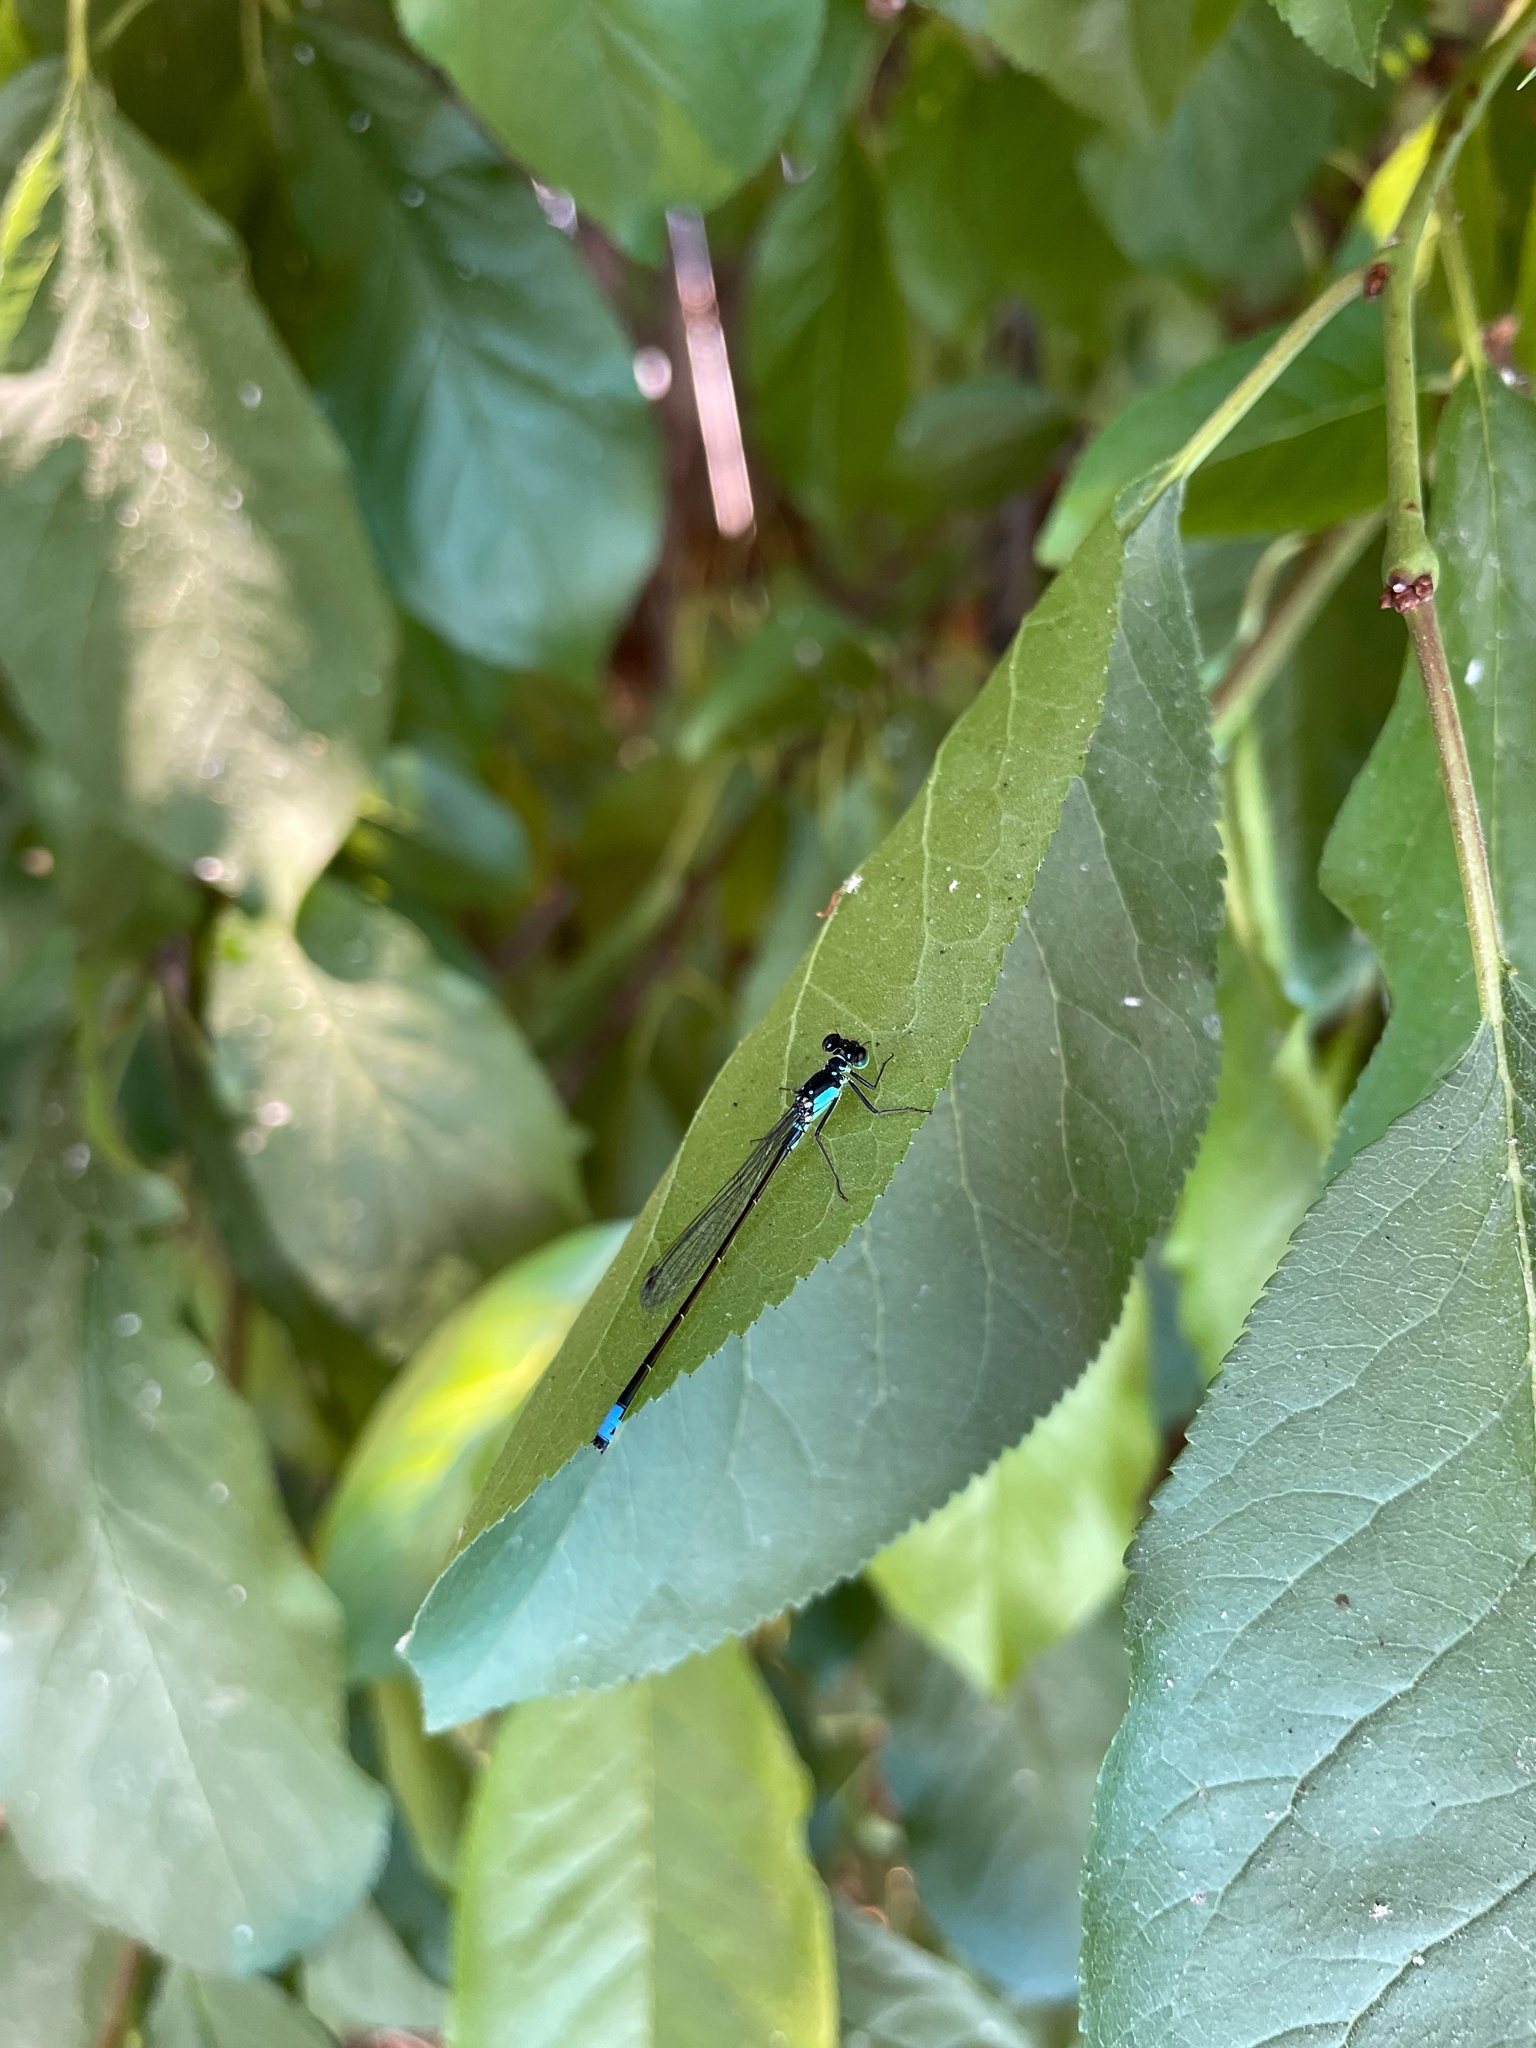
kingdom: Animalia
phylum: Arthropoda
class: Insecta
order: Odonata
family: Coenagrionidae
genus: Ischnura
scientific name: Ischnura cervula
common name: Pacific forktail
